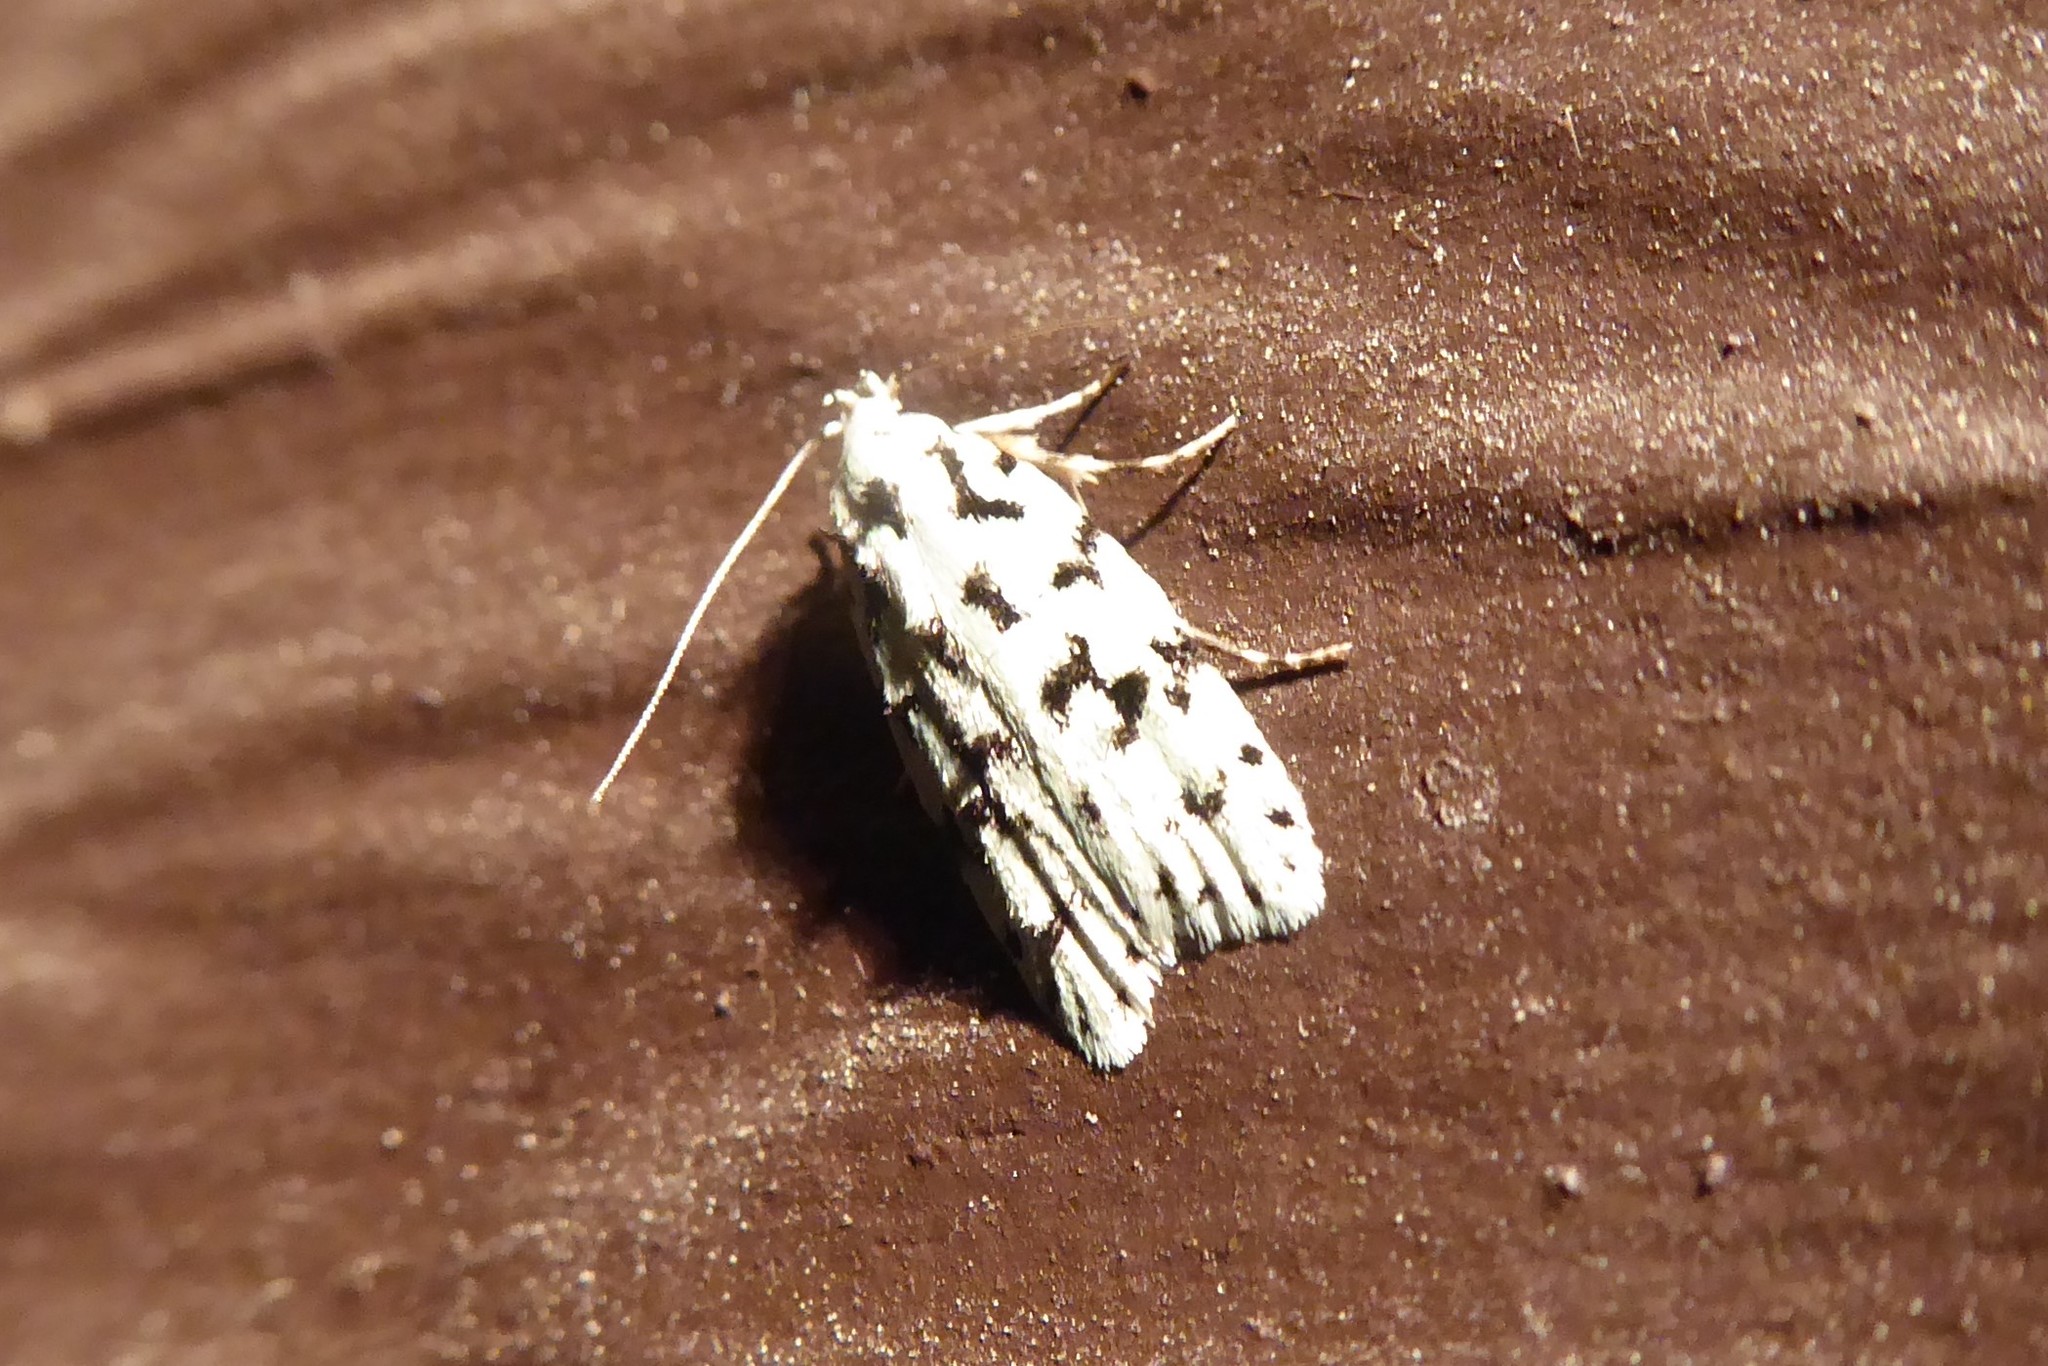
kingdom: Animalia
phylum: Arthropoda
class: Insecta
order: Lepidoptera
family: Oecophoridae
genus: Izatha
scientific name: Izatha huttoni
